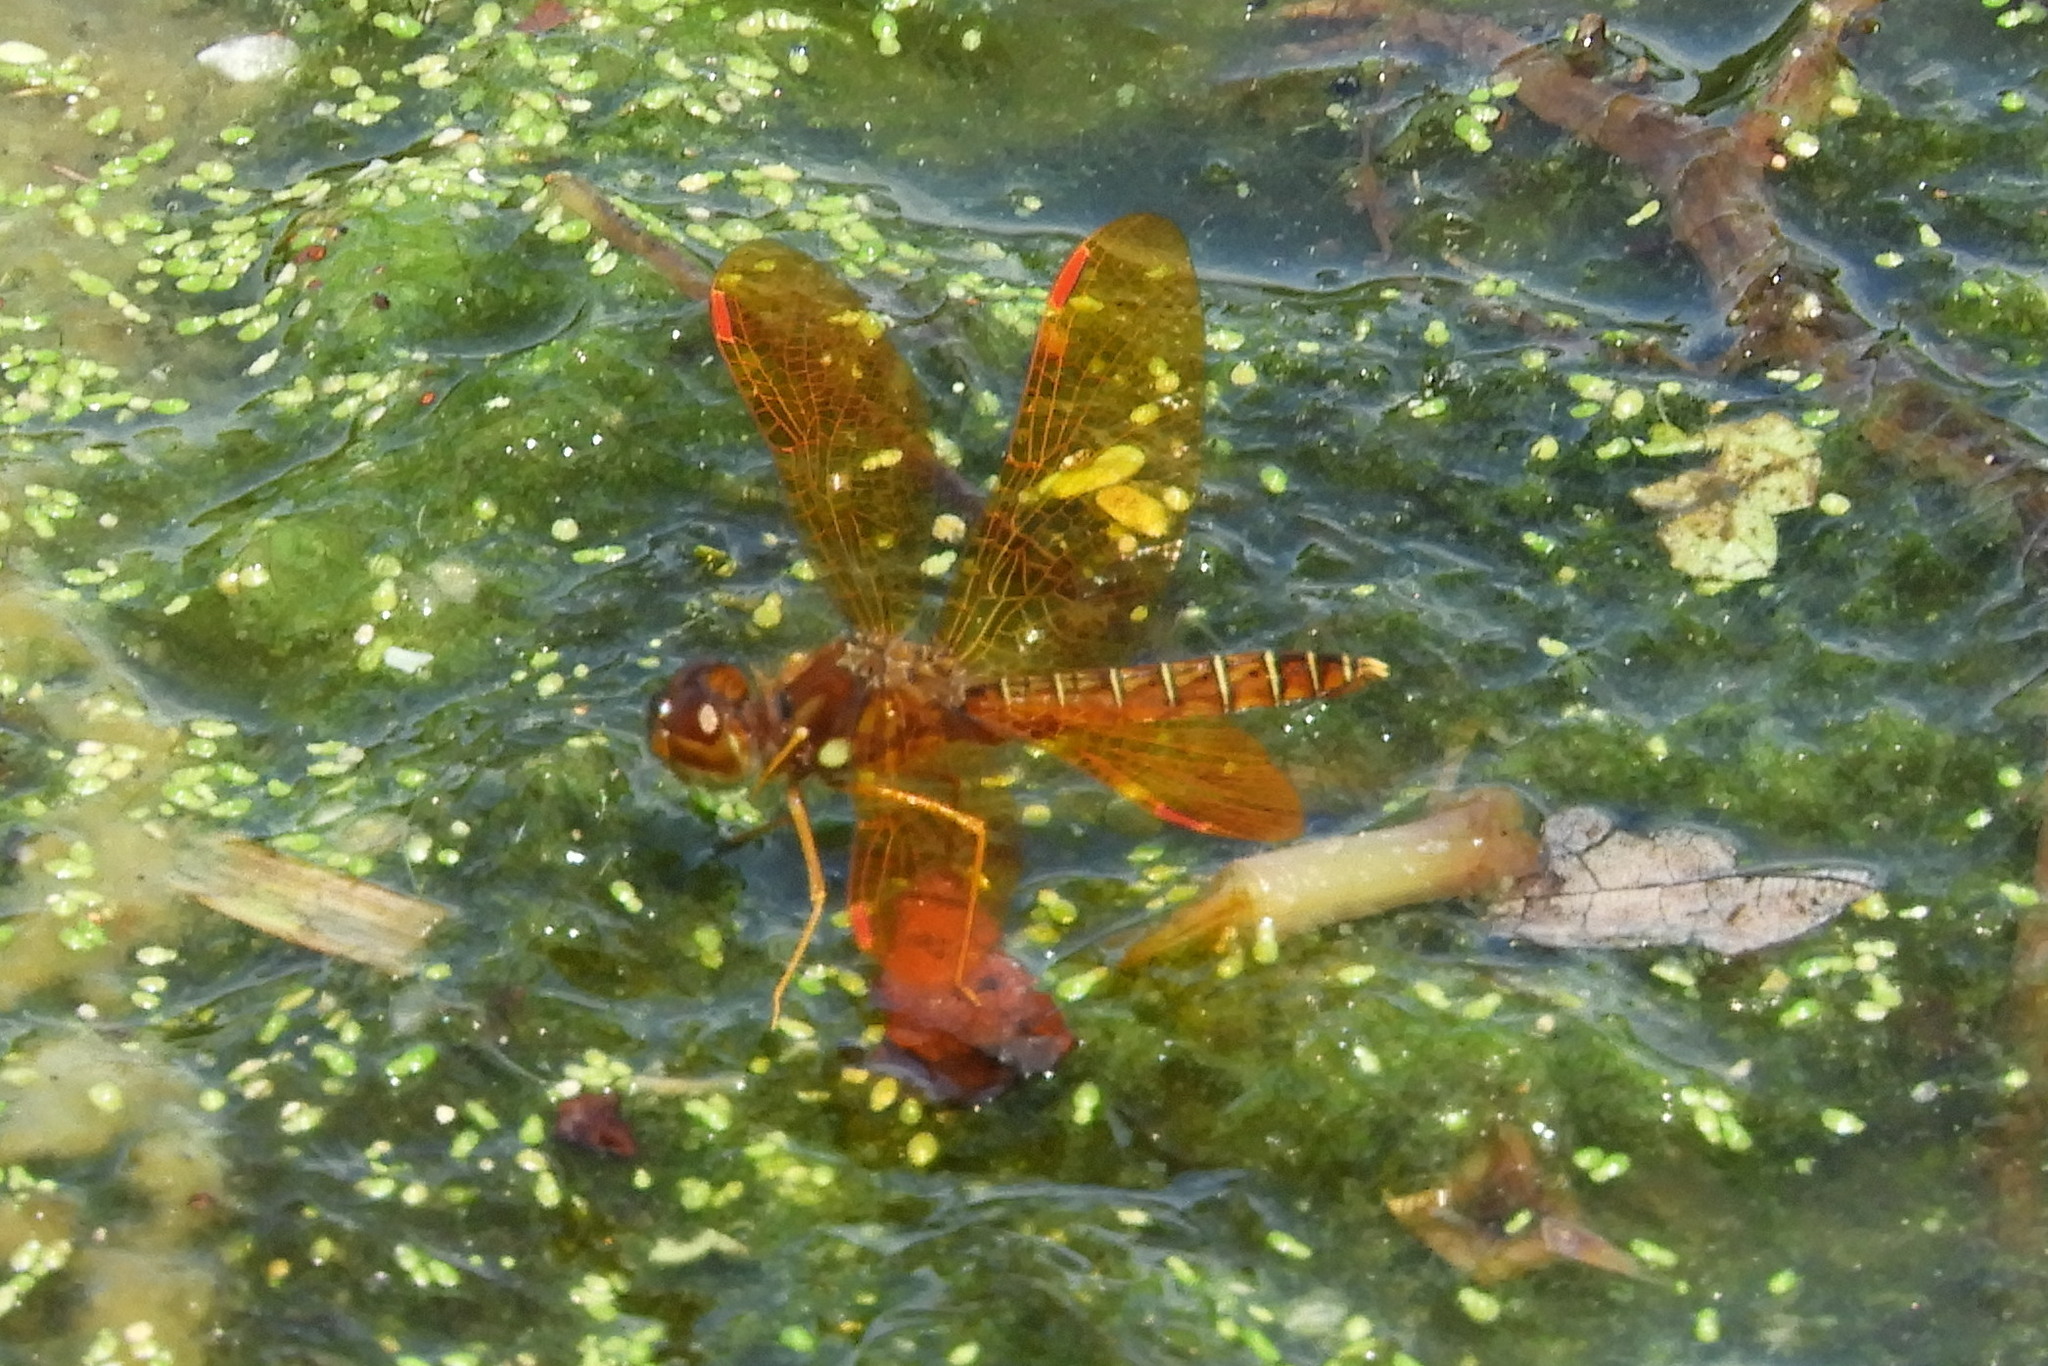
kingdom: Animalia
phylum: Arthropoda
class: Insecta
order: Odonata
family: Libellulidae
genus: Perithemis
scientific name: Perithemis tenera
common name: Eastern amberwing
